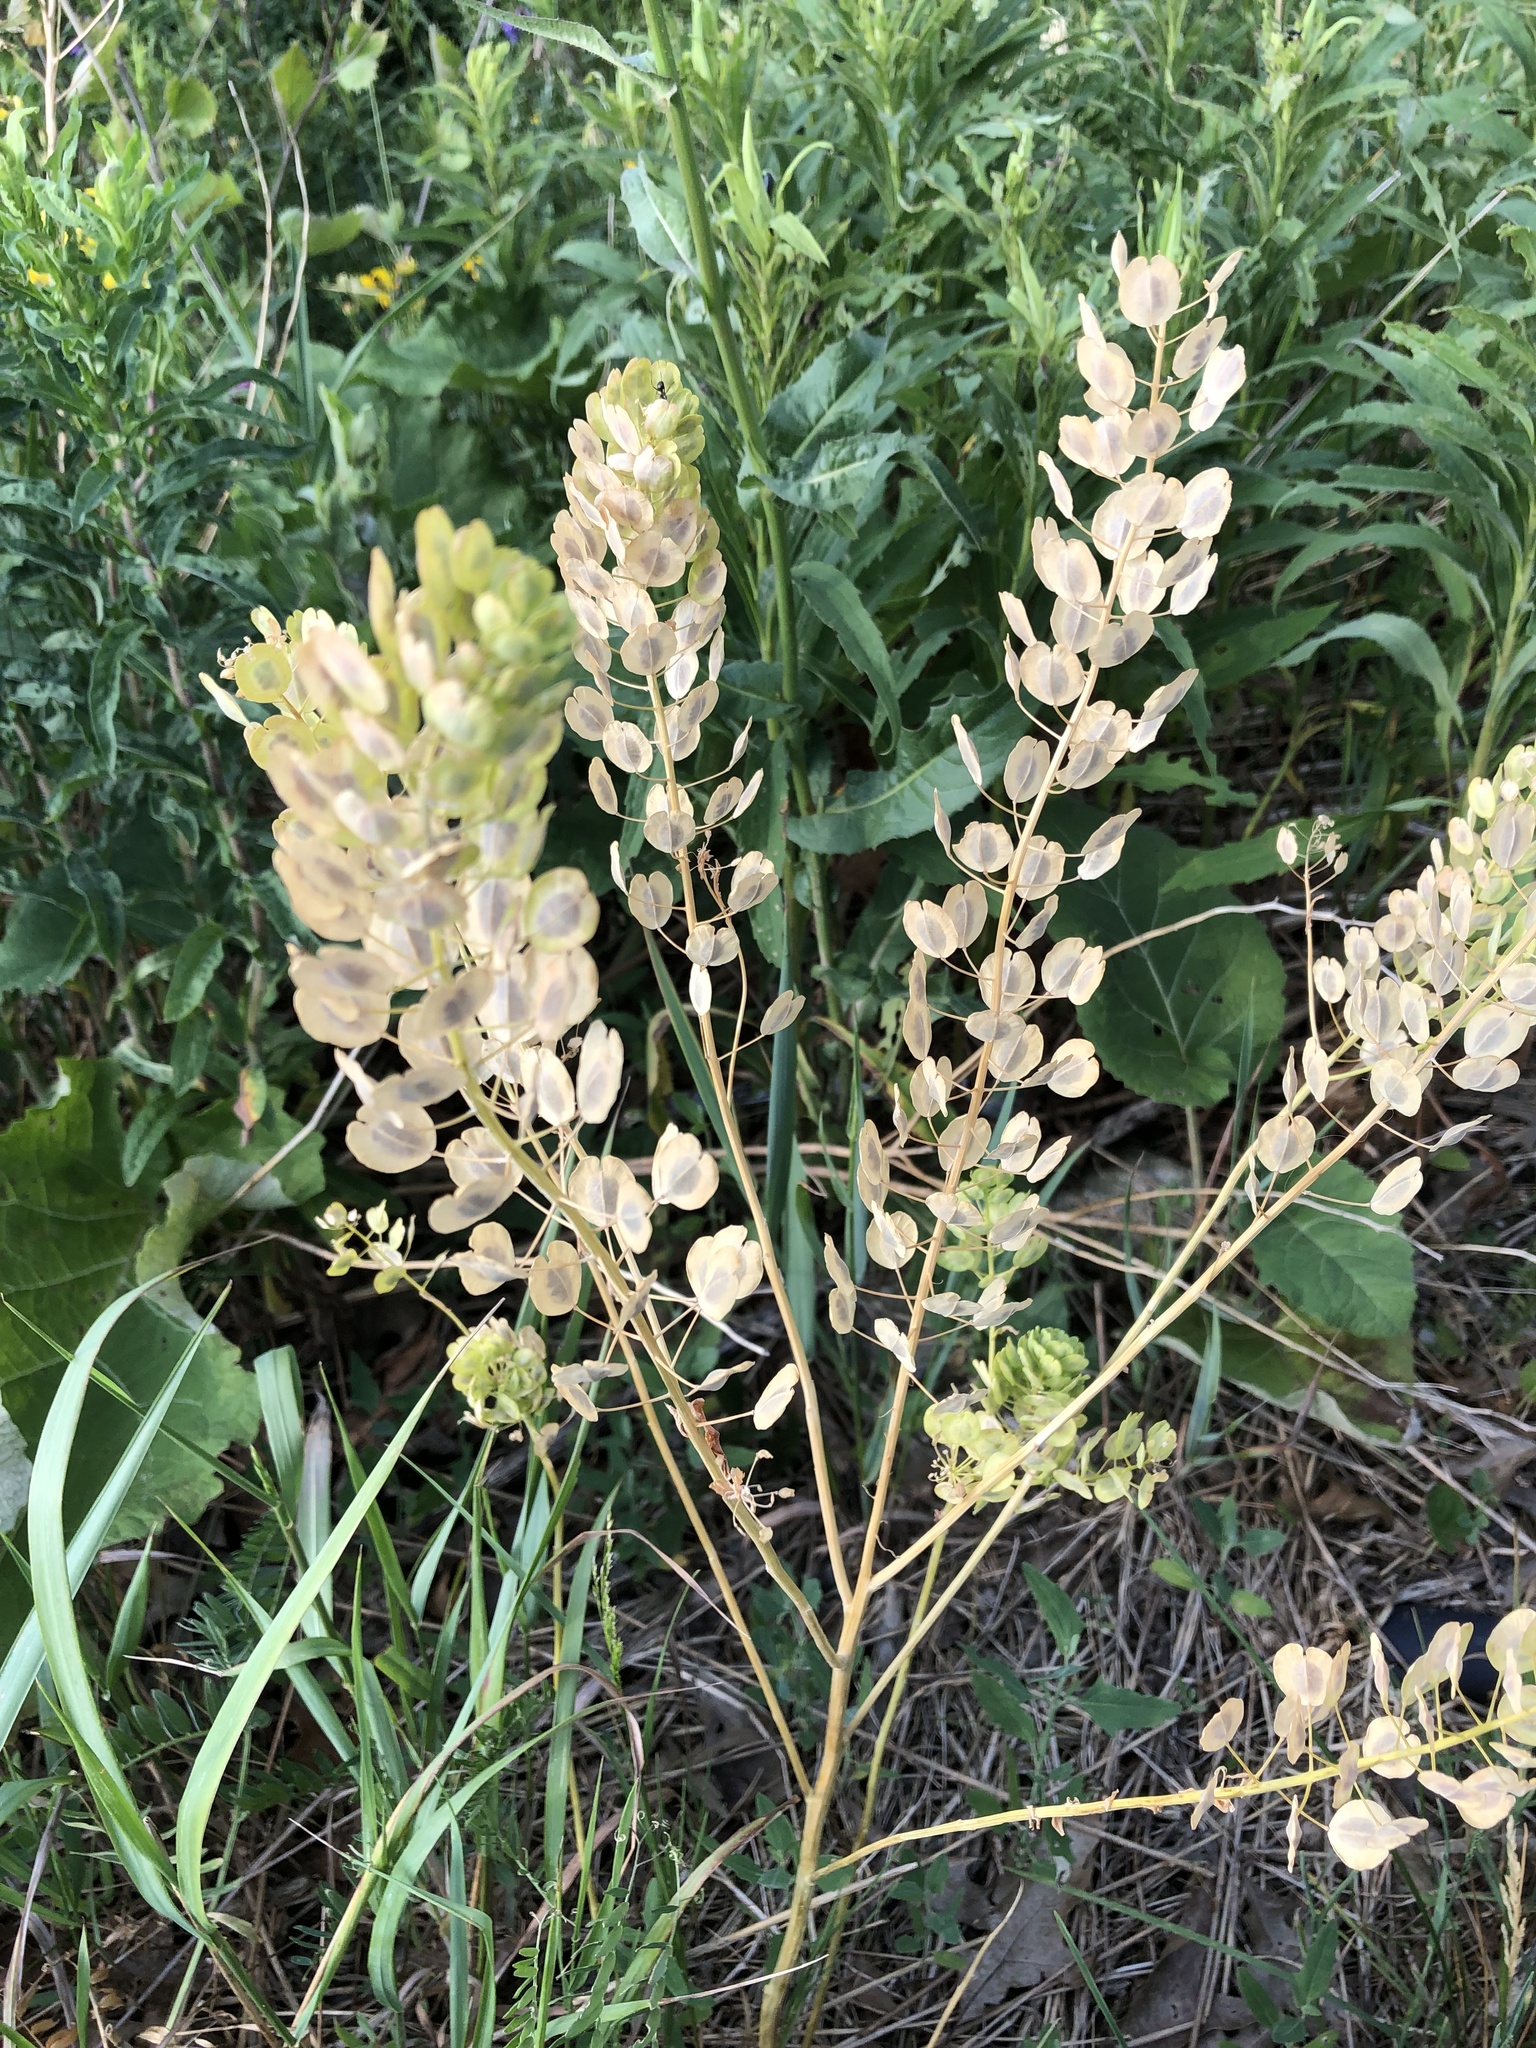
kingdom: Plantae
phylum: Tracheophyta
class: Magnoliopsida
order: Brassicales
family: Brassicaceae
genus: Thlaspi
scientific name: Thlaspi arvense
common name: Field pennycress
